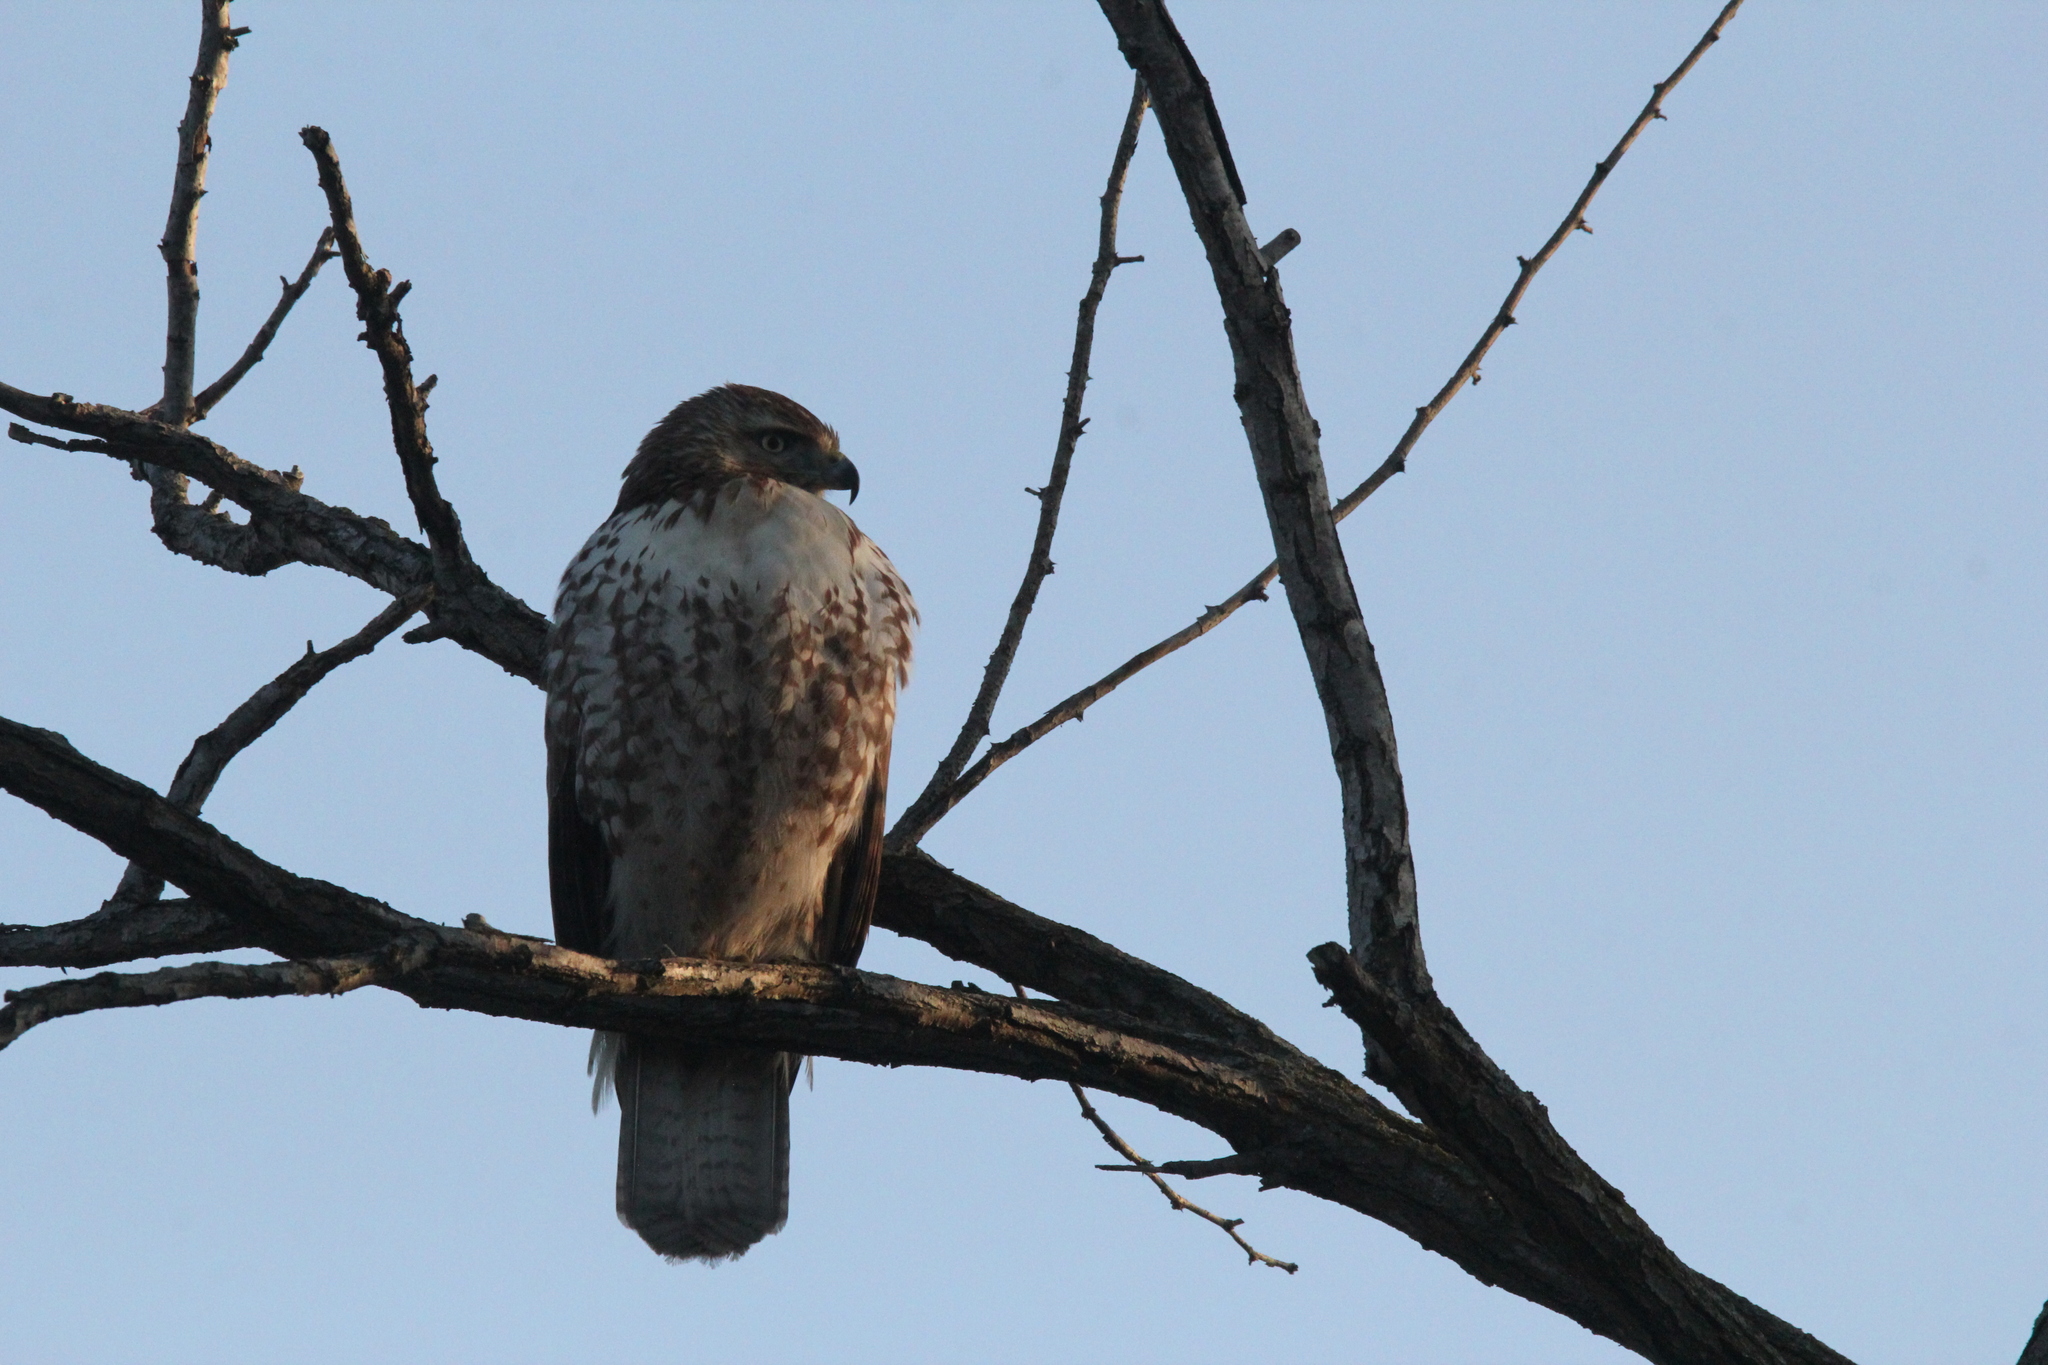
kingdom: Animalia
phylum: Chordata
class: Aves
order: Accipitriformes
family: Accipitridae
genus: Buteo
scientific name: Buteo jamaicensis
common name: Red-tailed hawk
